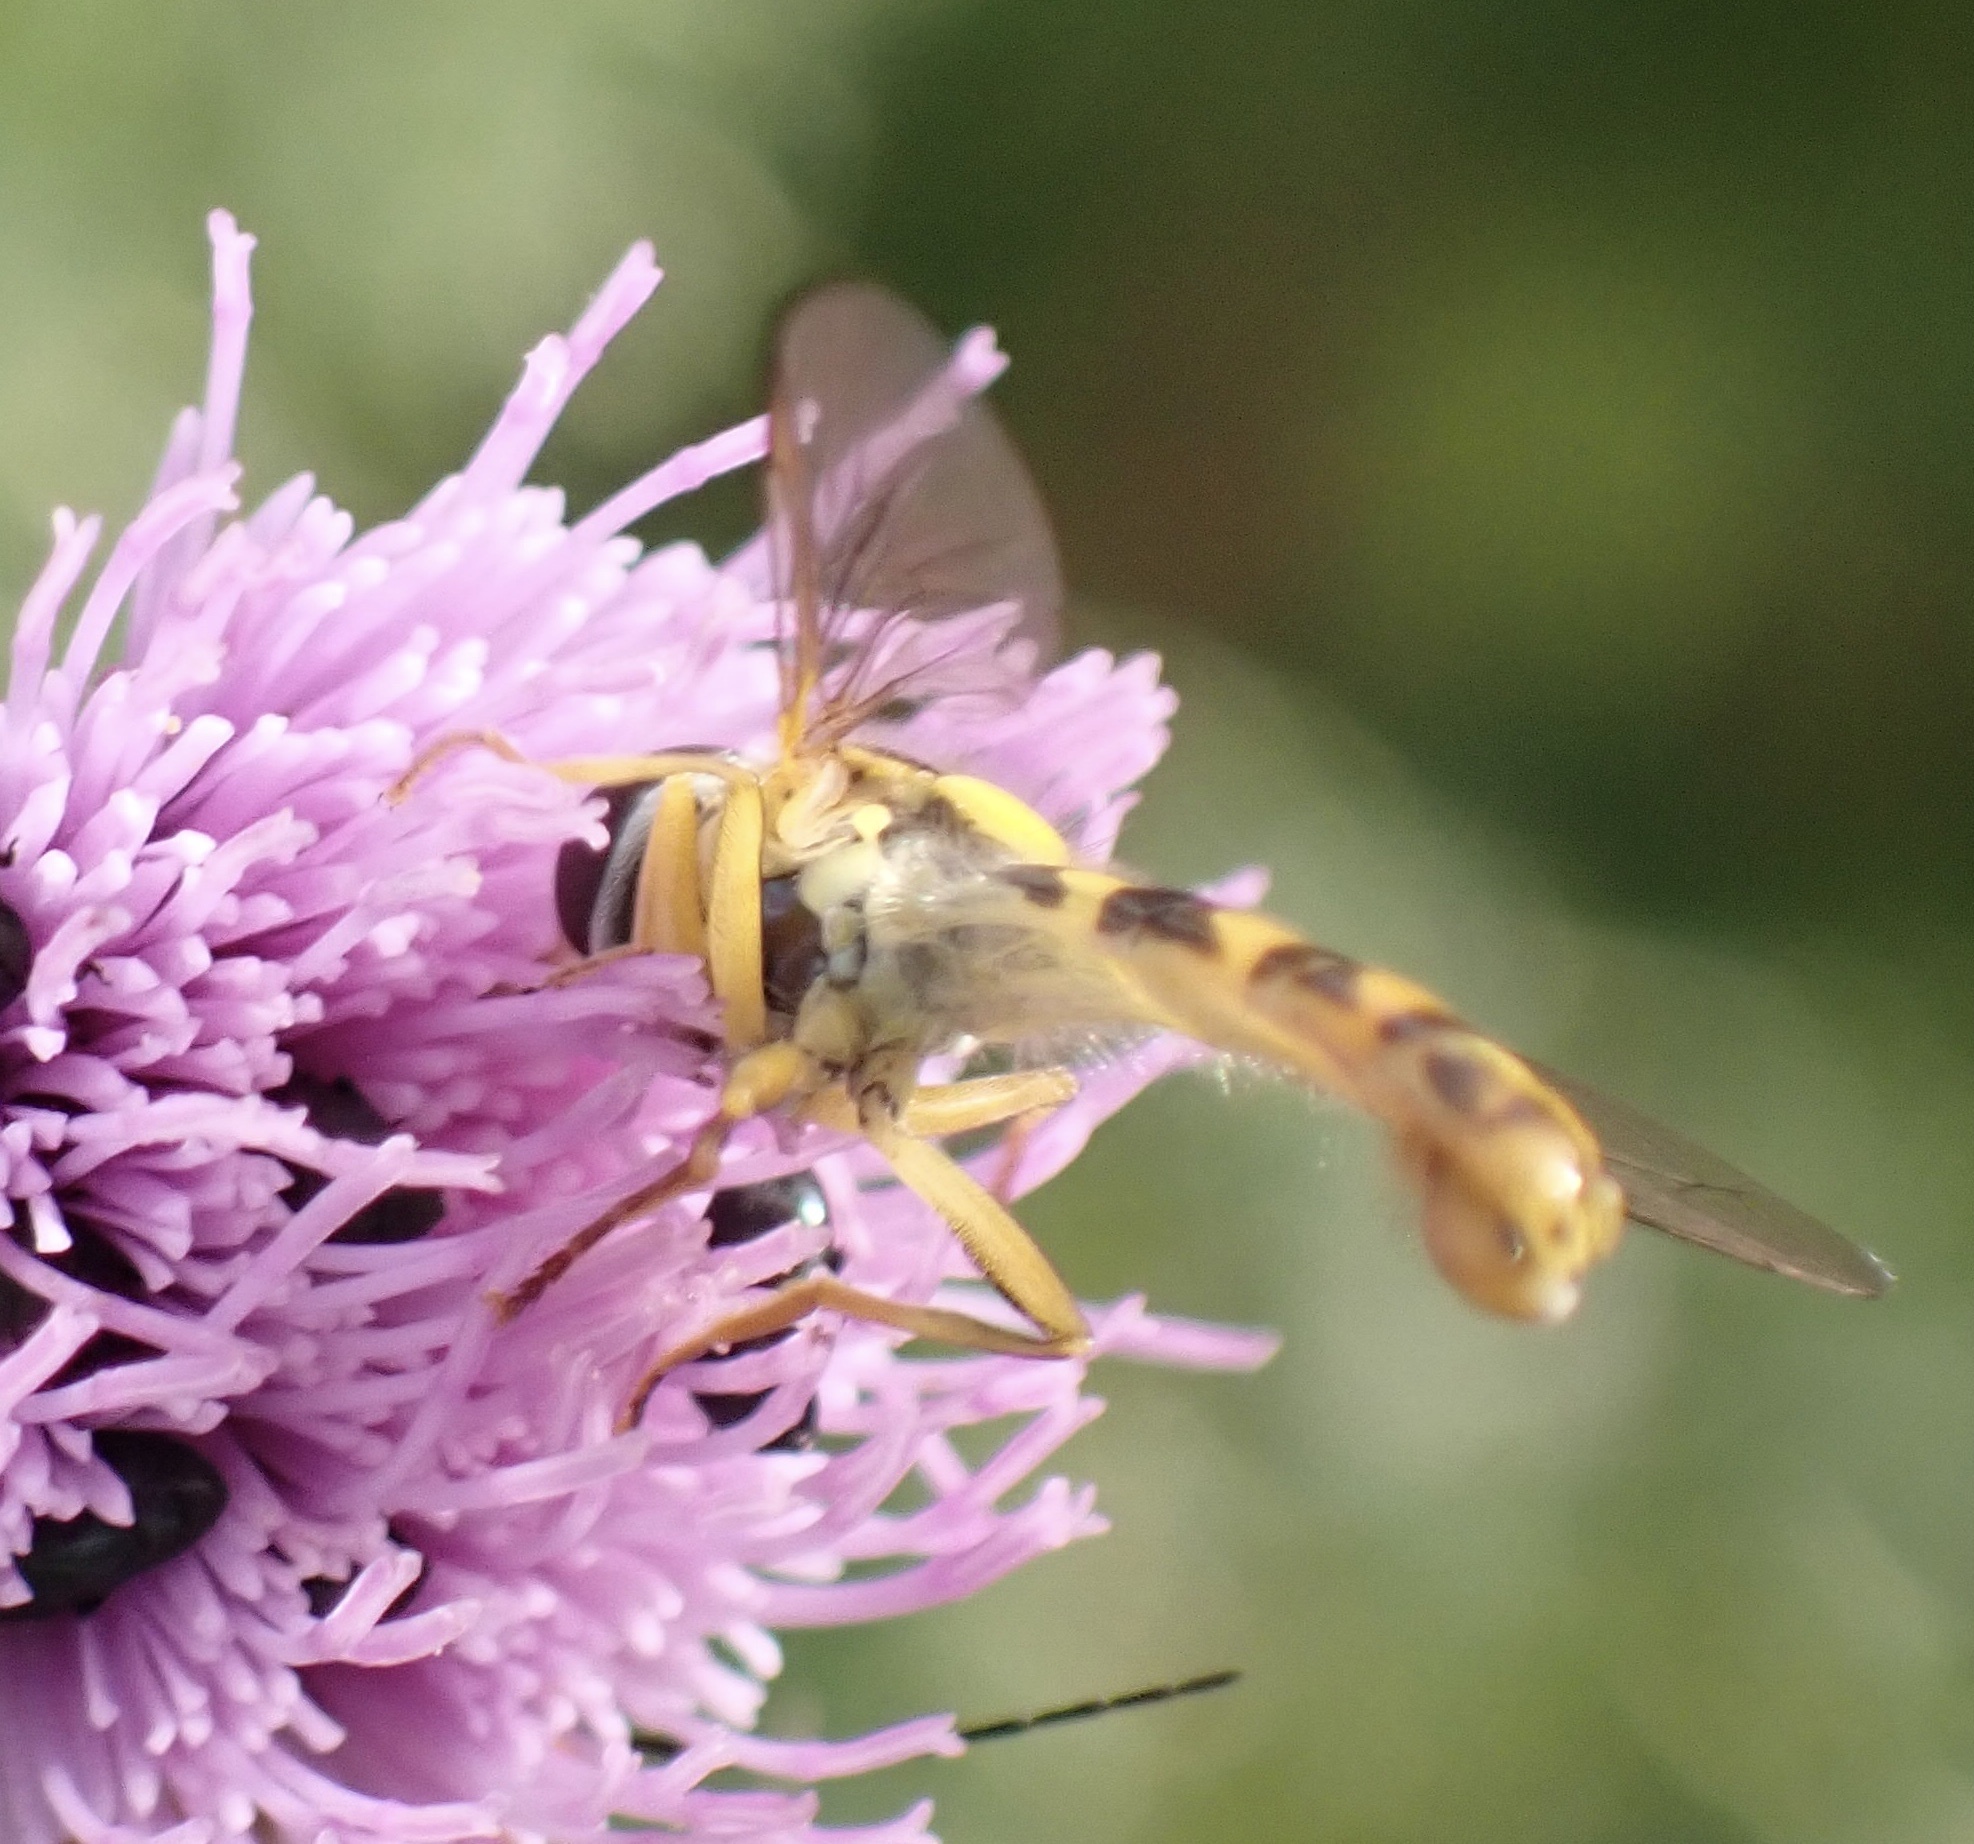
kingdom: Animalia
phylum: Arthropoda
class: Insecta
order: Diptera
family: Syrphidae
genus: Sphaerophoria
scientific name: Sphaerophoria scripta
